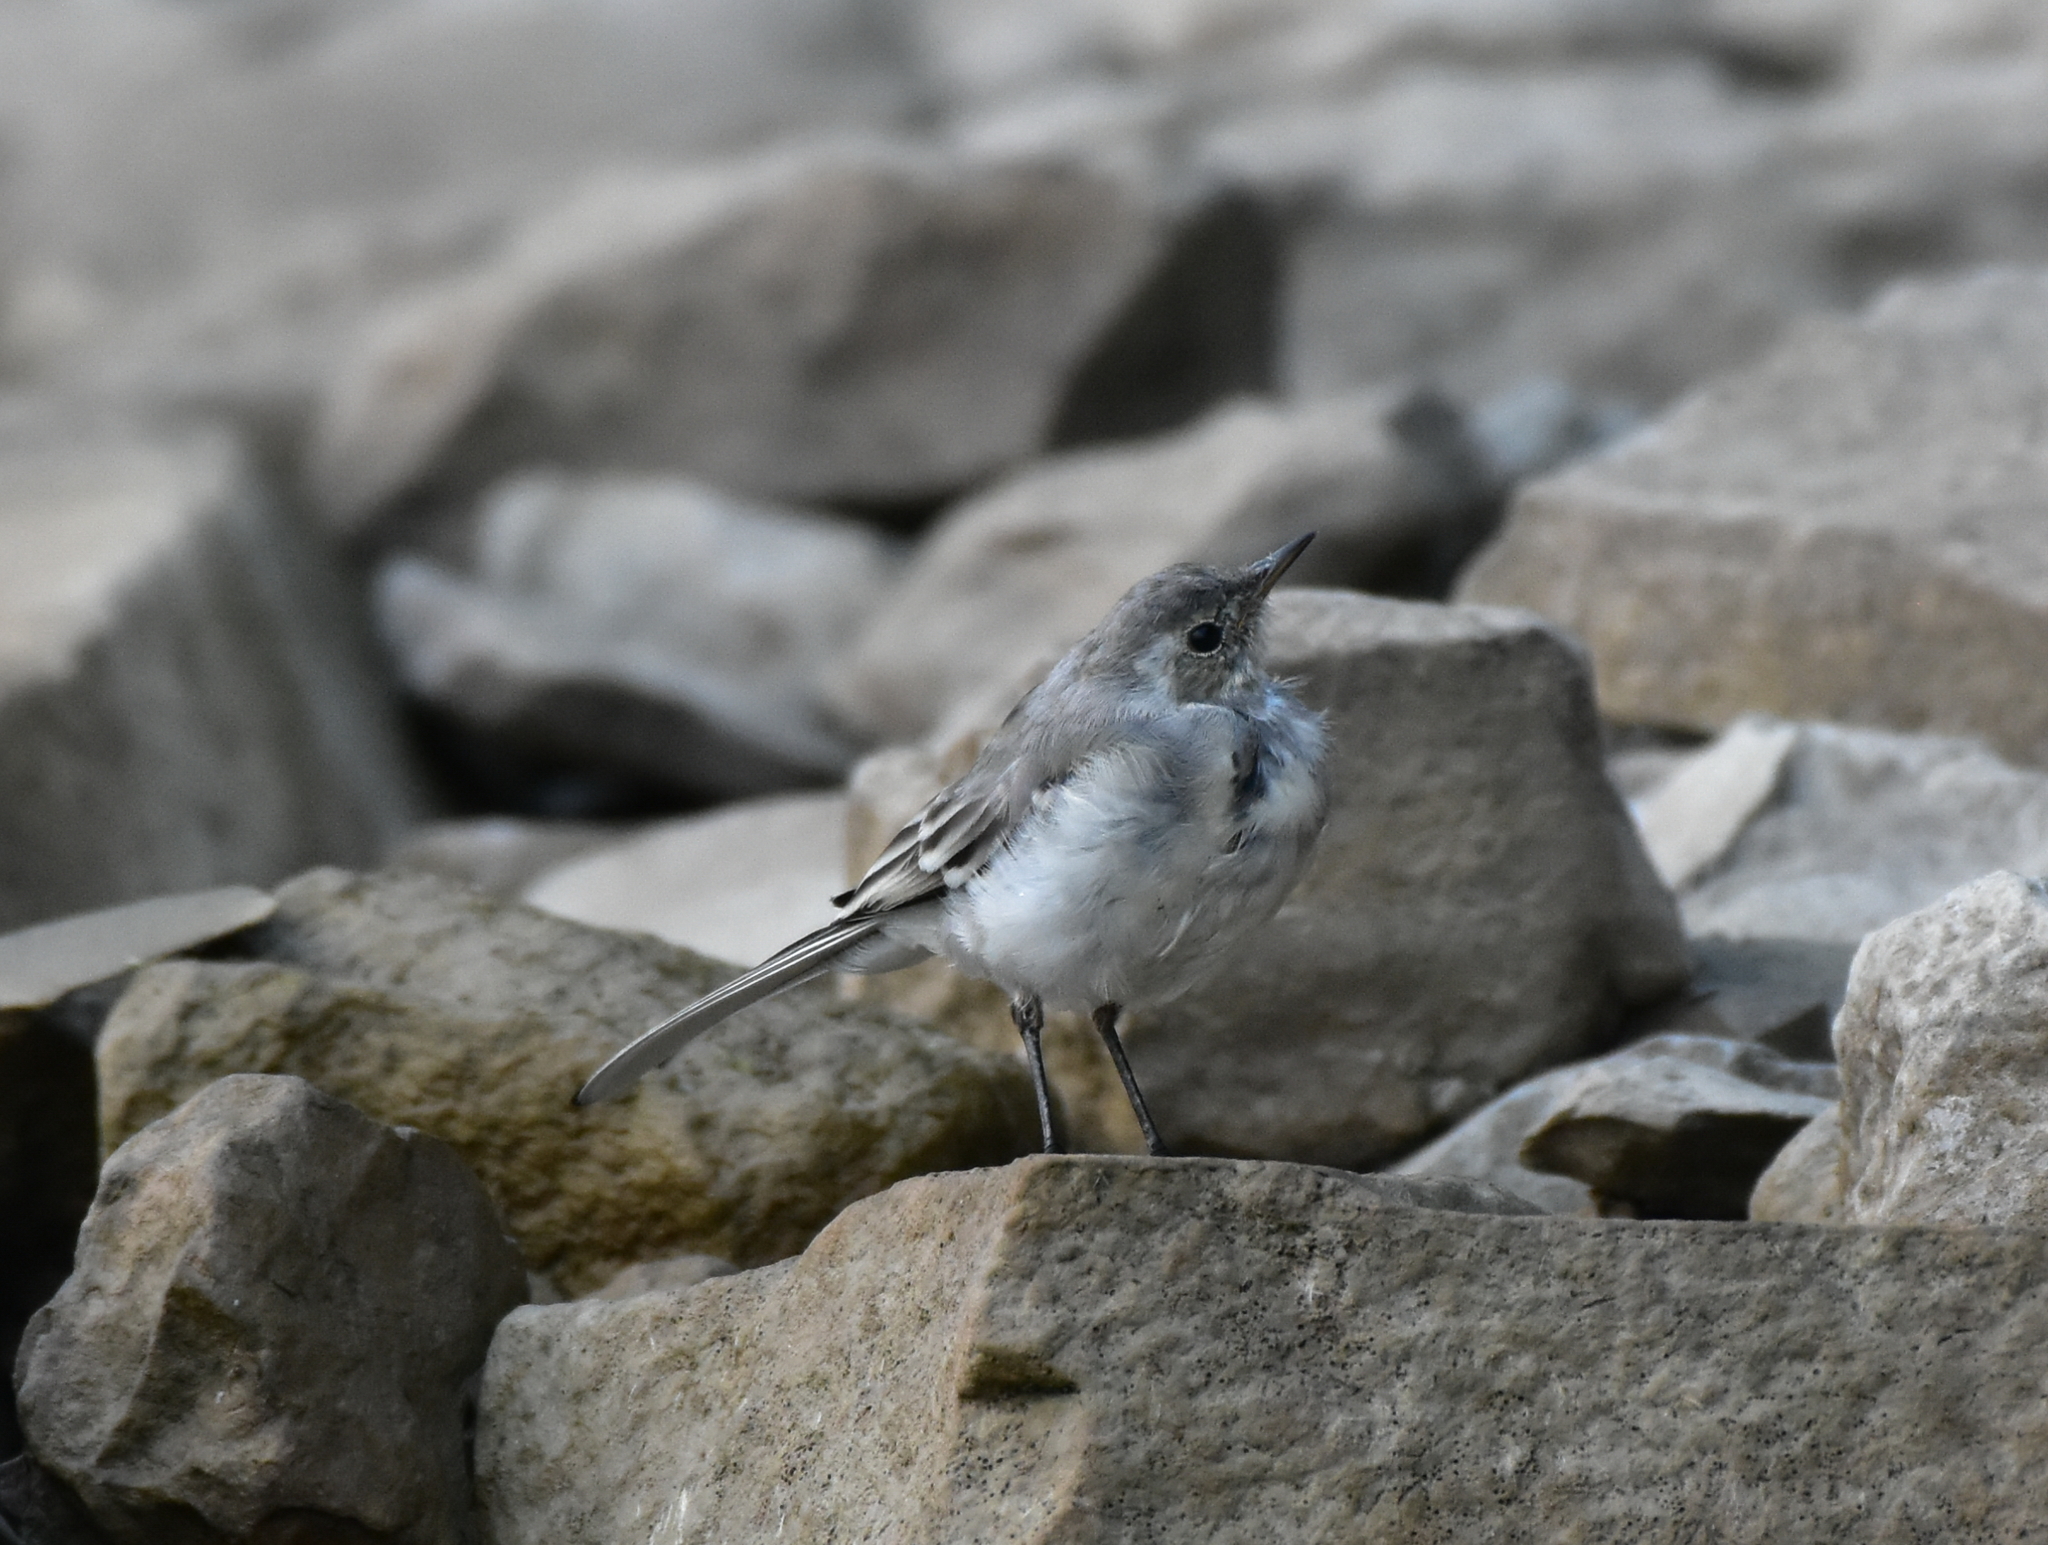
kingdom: Animalia
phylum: Chordata
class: Aves
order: Passeriformes
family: Motacillidae
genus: Motacilla
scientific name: Motacilla alba
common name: White wagtail
